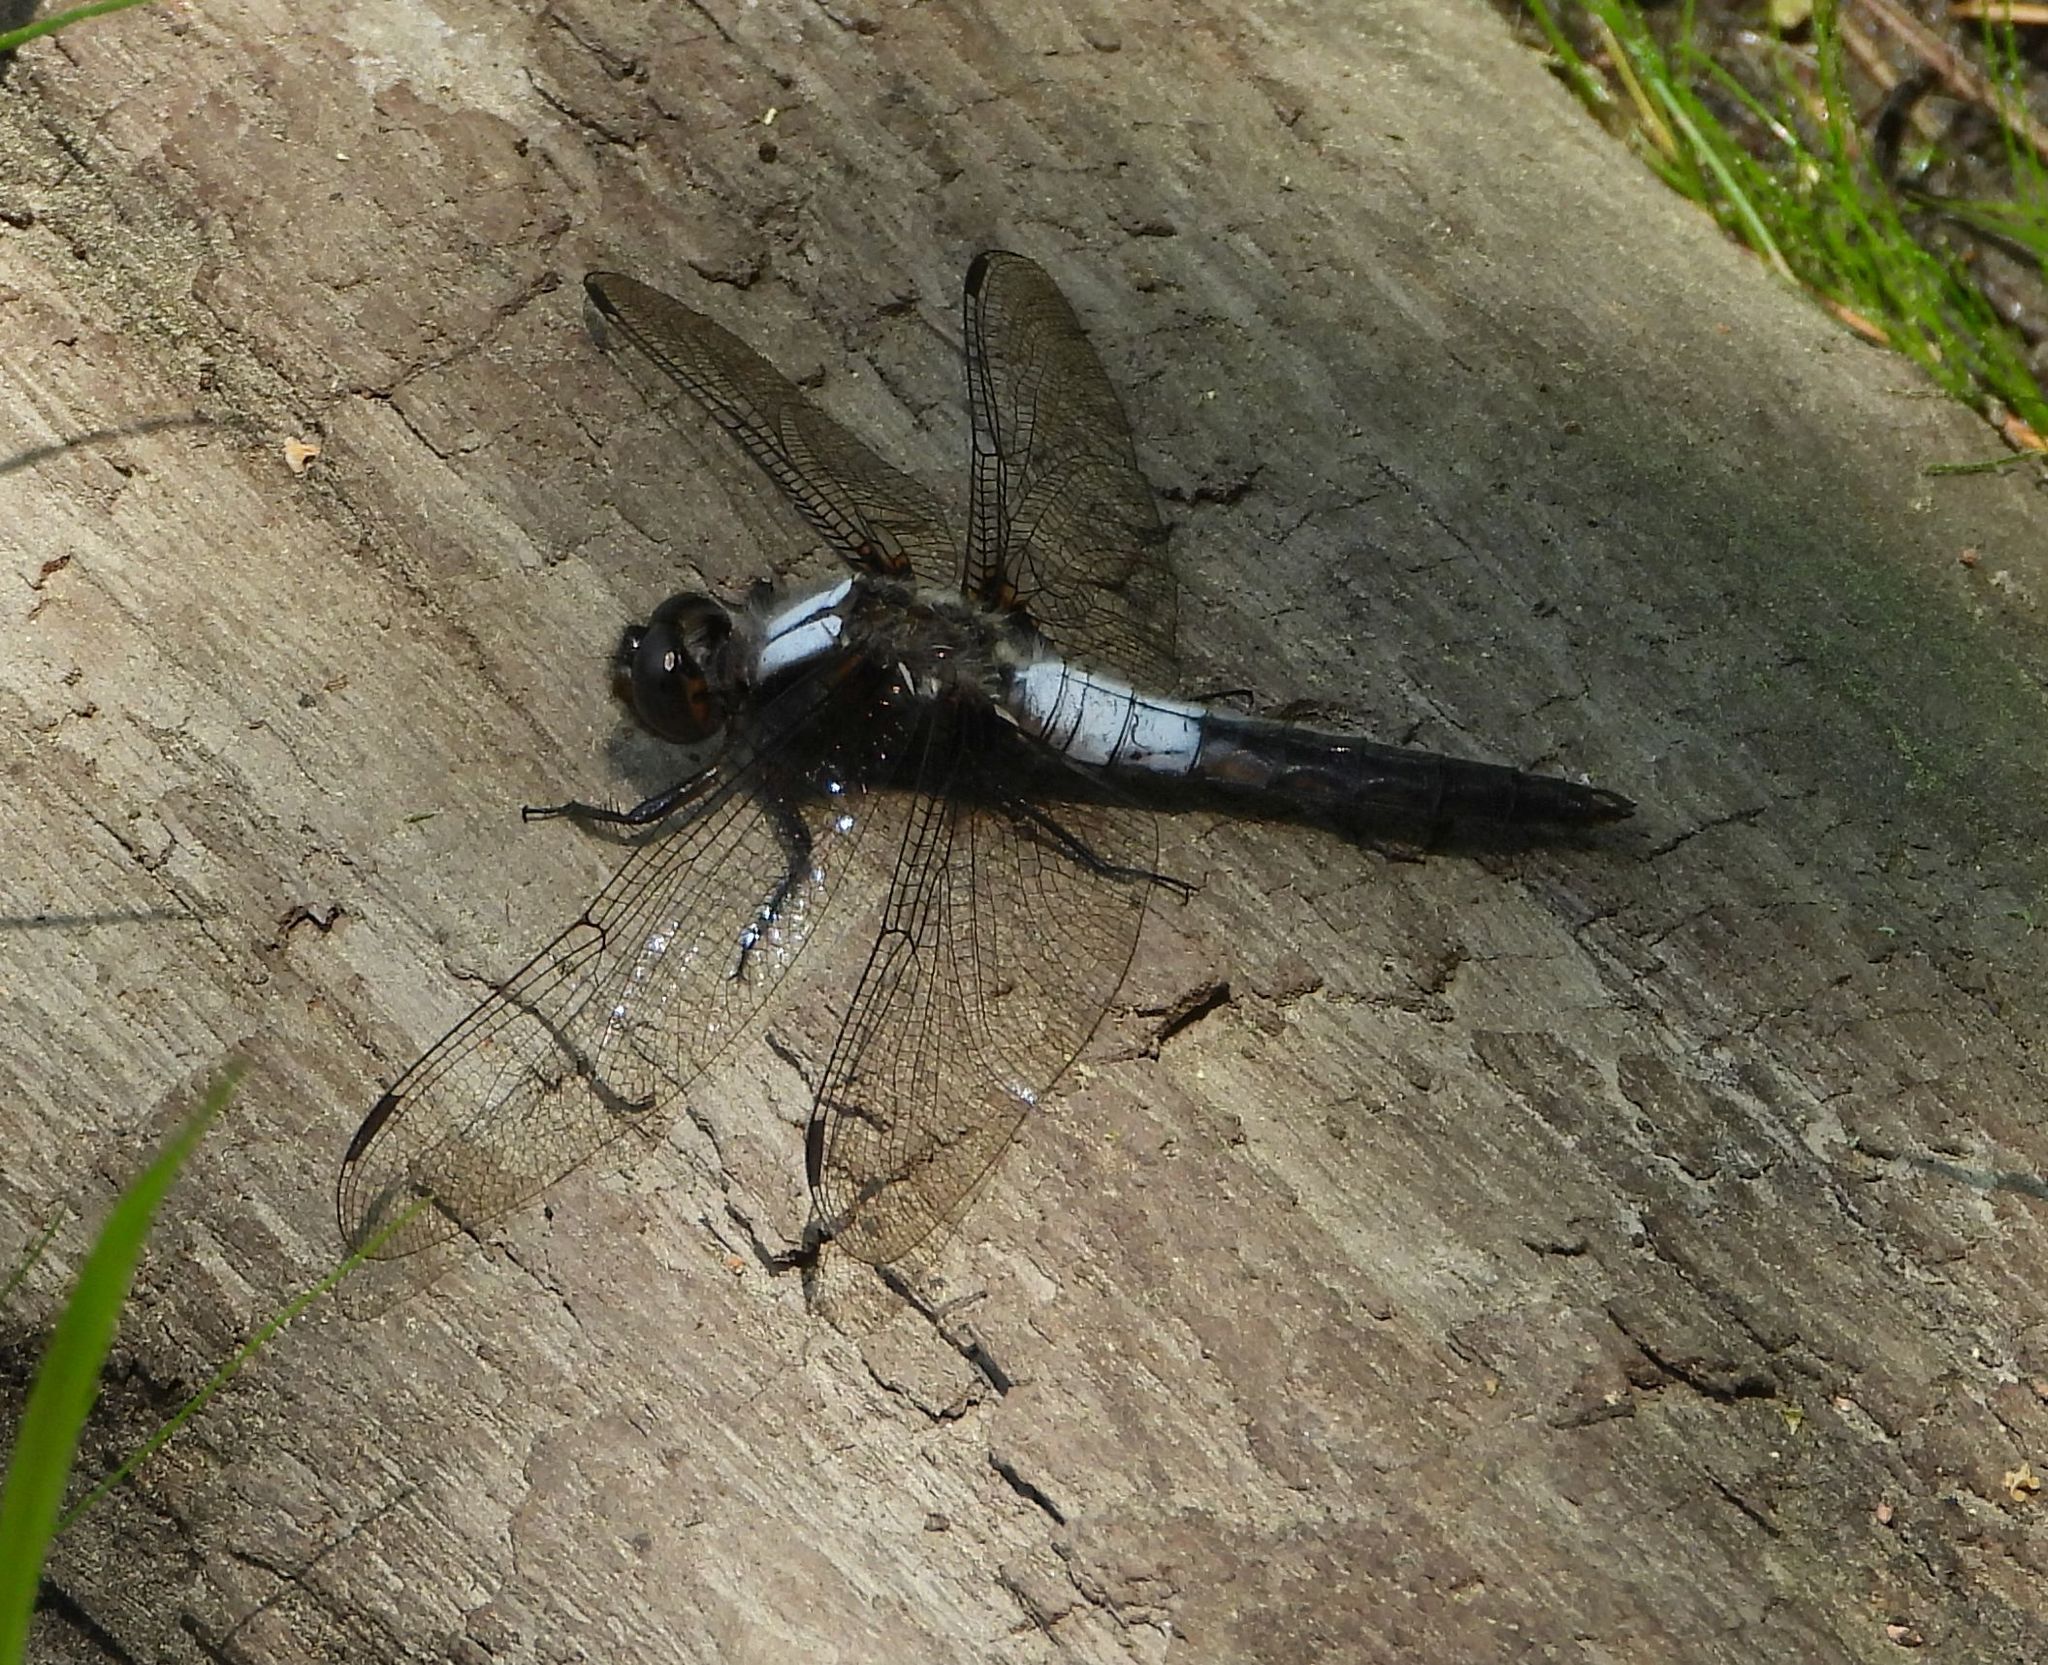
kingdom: Animalia
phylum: Arthropoda
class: Insecta
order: Odonata
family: Libellulidae
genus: Ladona
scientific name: Ladona julia
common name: Chalk-fronted corporal
